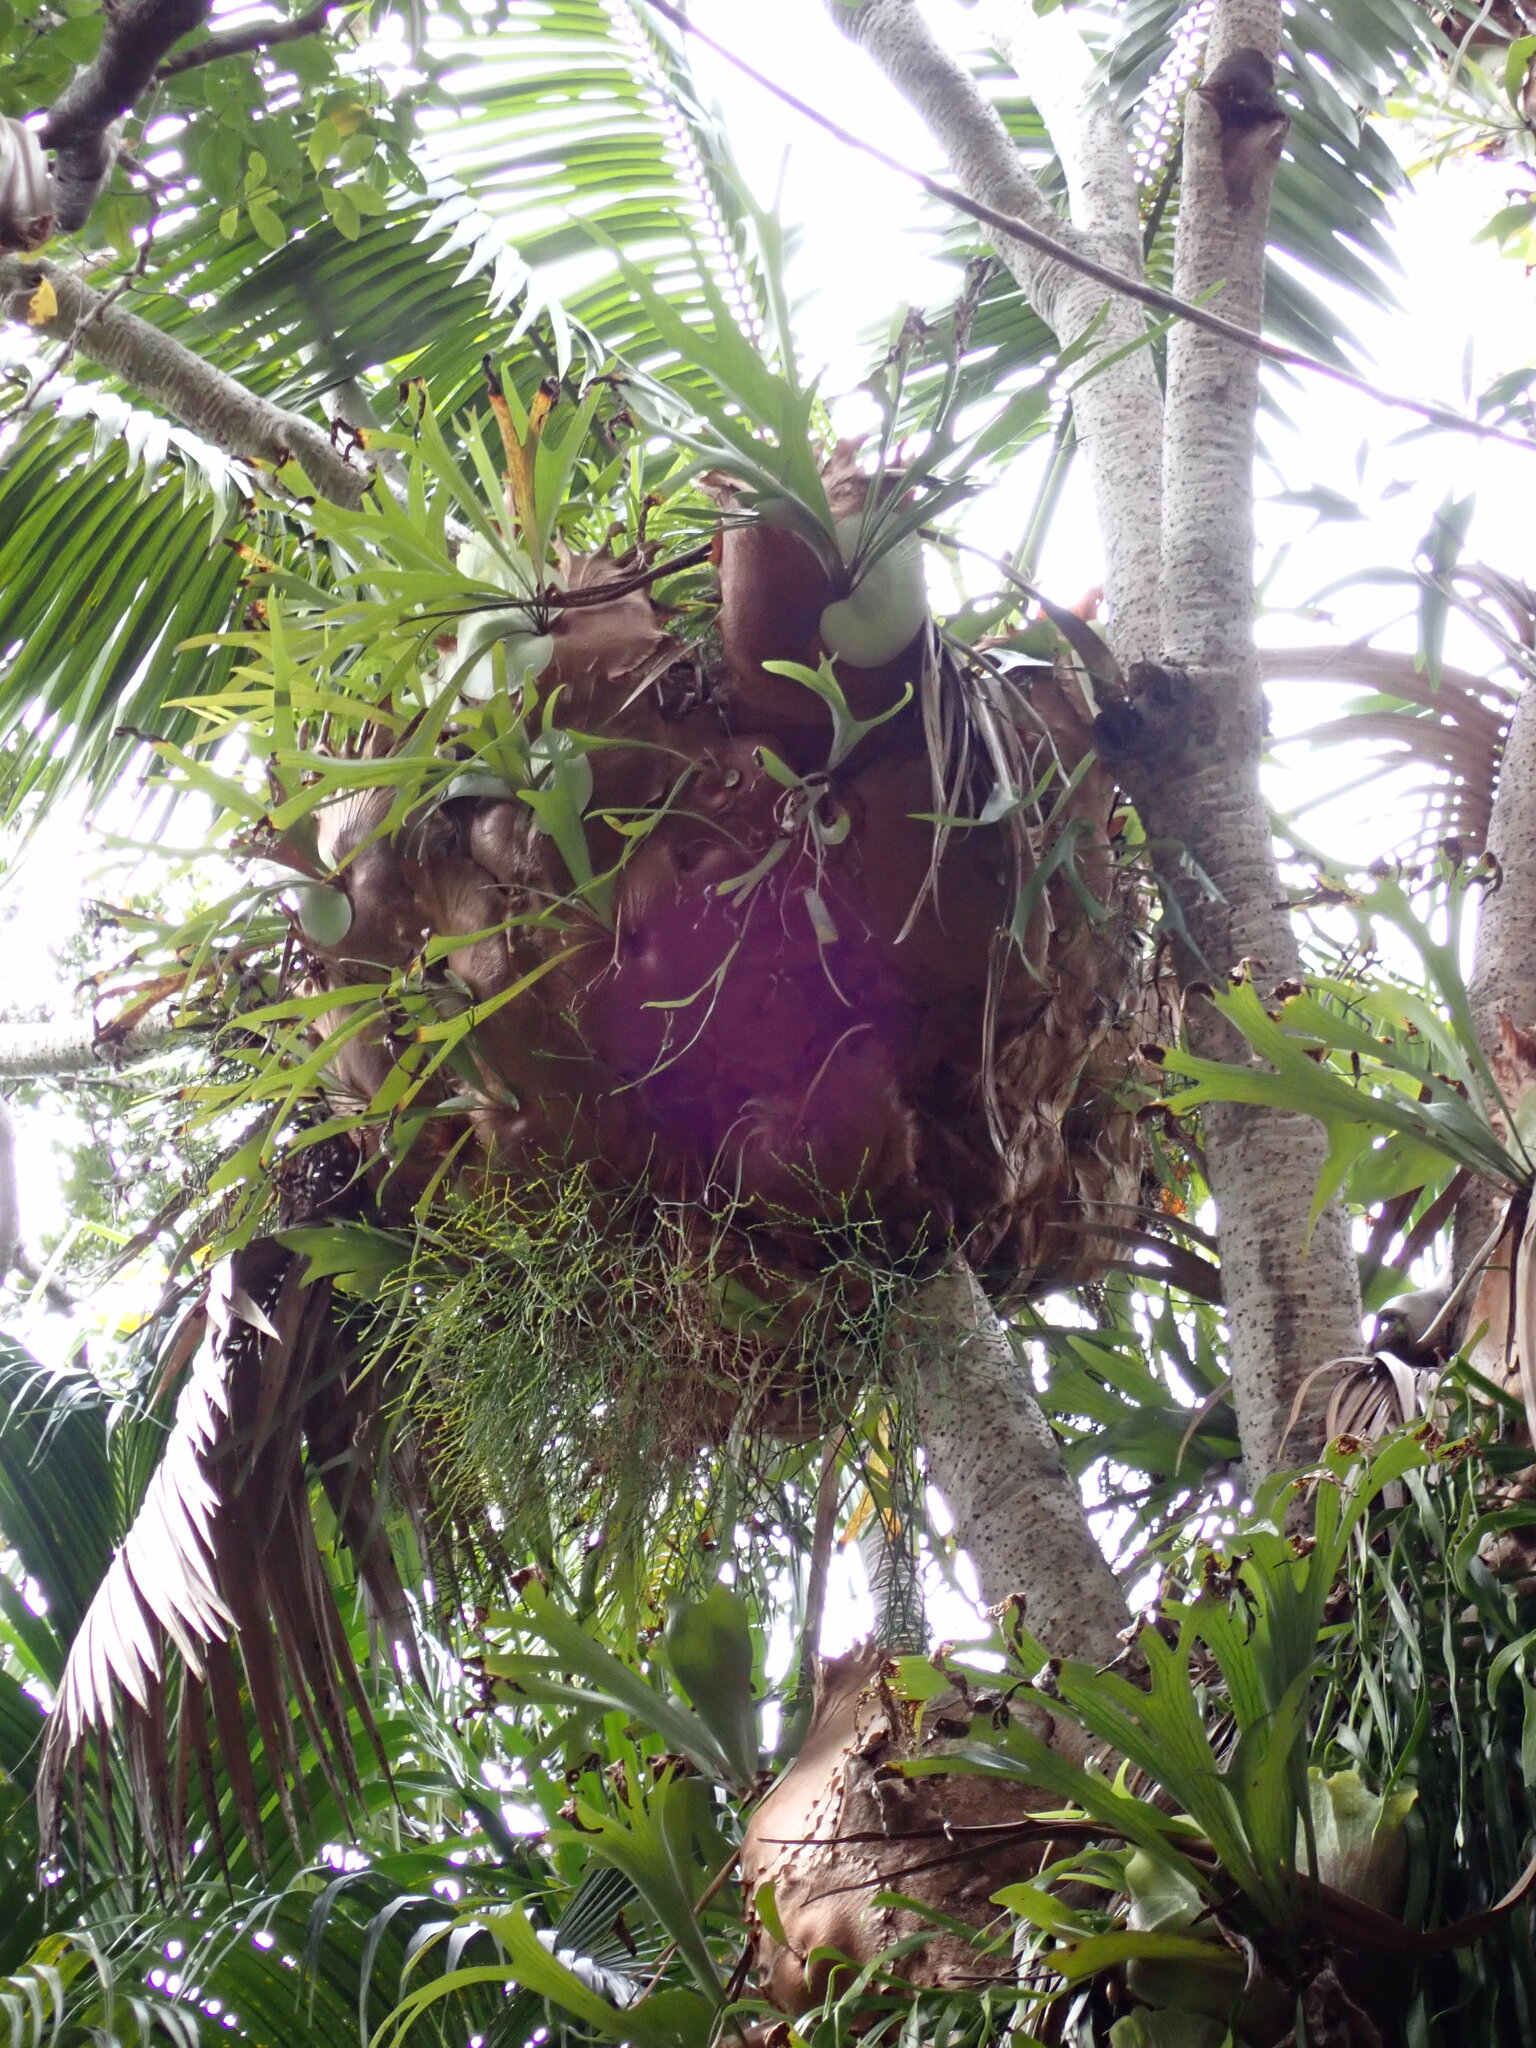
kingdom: Plantae
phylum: Tracheophyta
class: Polypodiopsida
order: Psilotales
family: Psilotaceae
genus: Psilotum
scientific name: Psilotum nudum
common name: Skeleton fork fern
